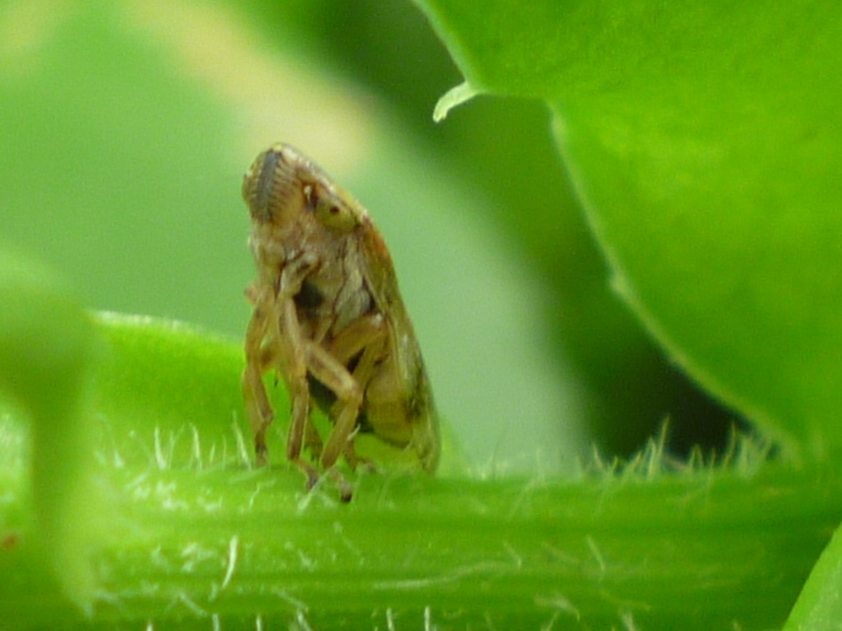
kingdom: Animalia
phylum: Arthropoda
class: Insecta
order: Hemiptera
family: Aphrophoridae
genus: Philaenus
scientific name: Philaenus spumarius
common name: Meadow spittlebug
